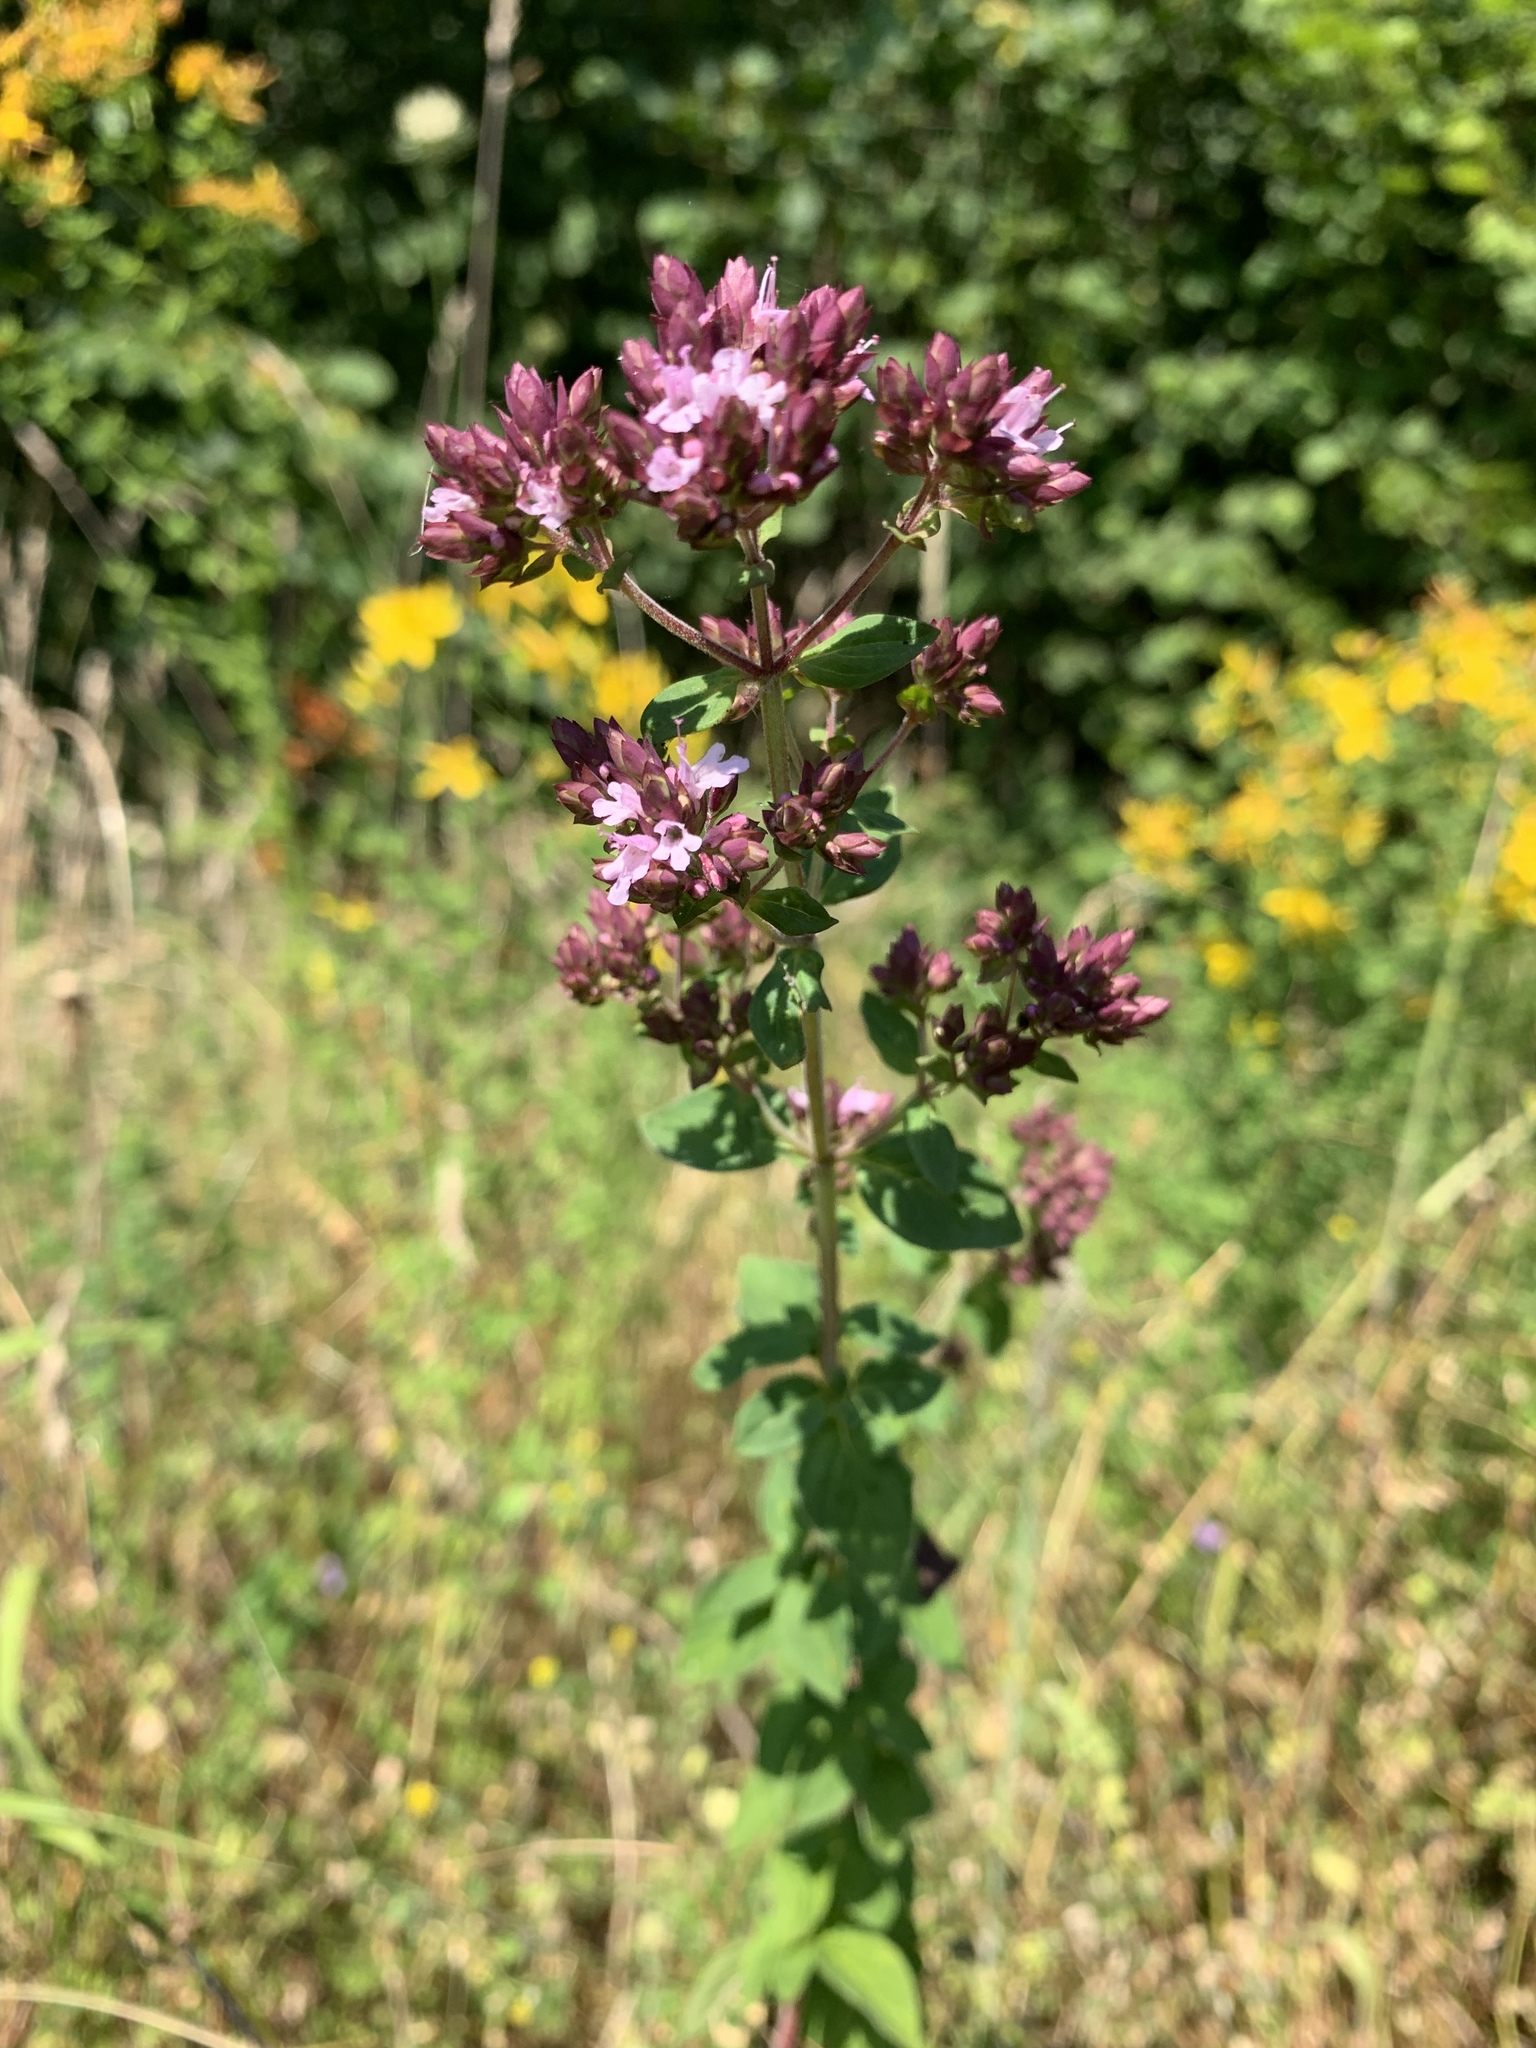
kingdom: Plantae
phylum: Tracheophyta
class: Magnoliopsida
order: Lamiales
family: Lamiaceae
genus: Origanum
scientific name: Origanum vulgare
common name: Wild marjoram
